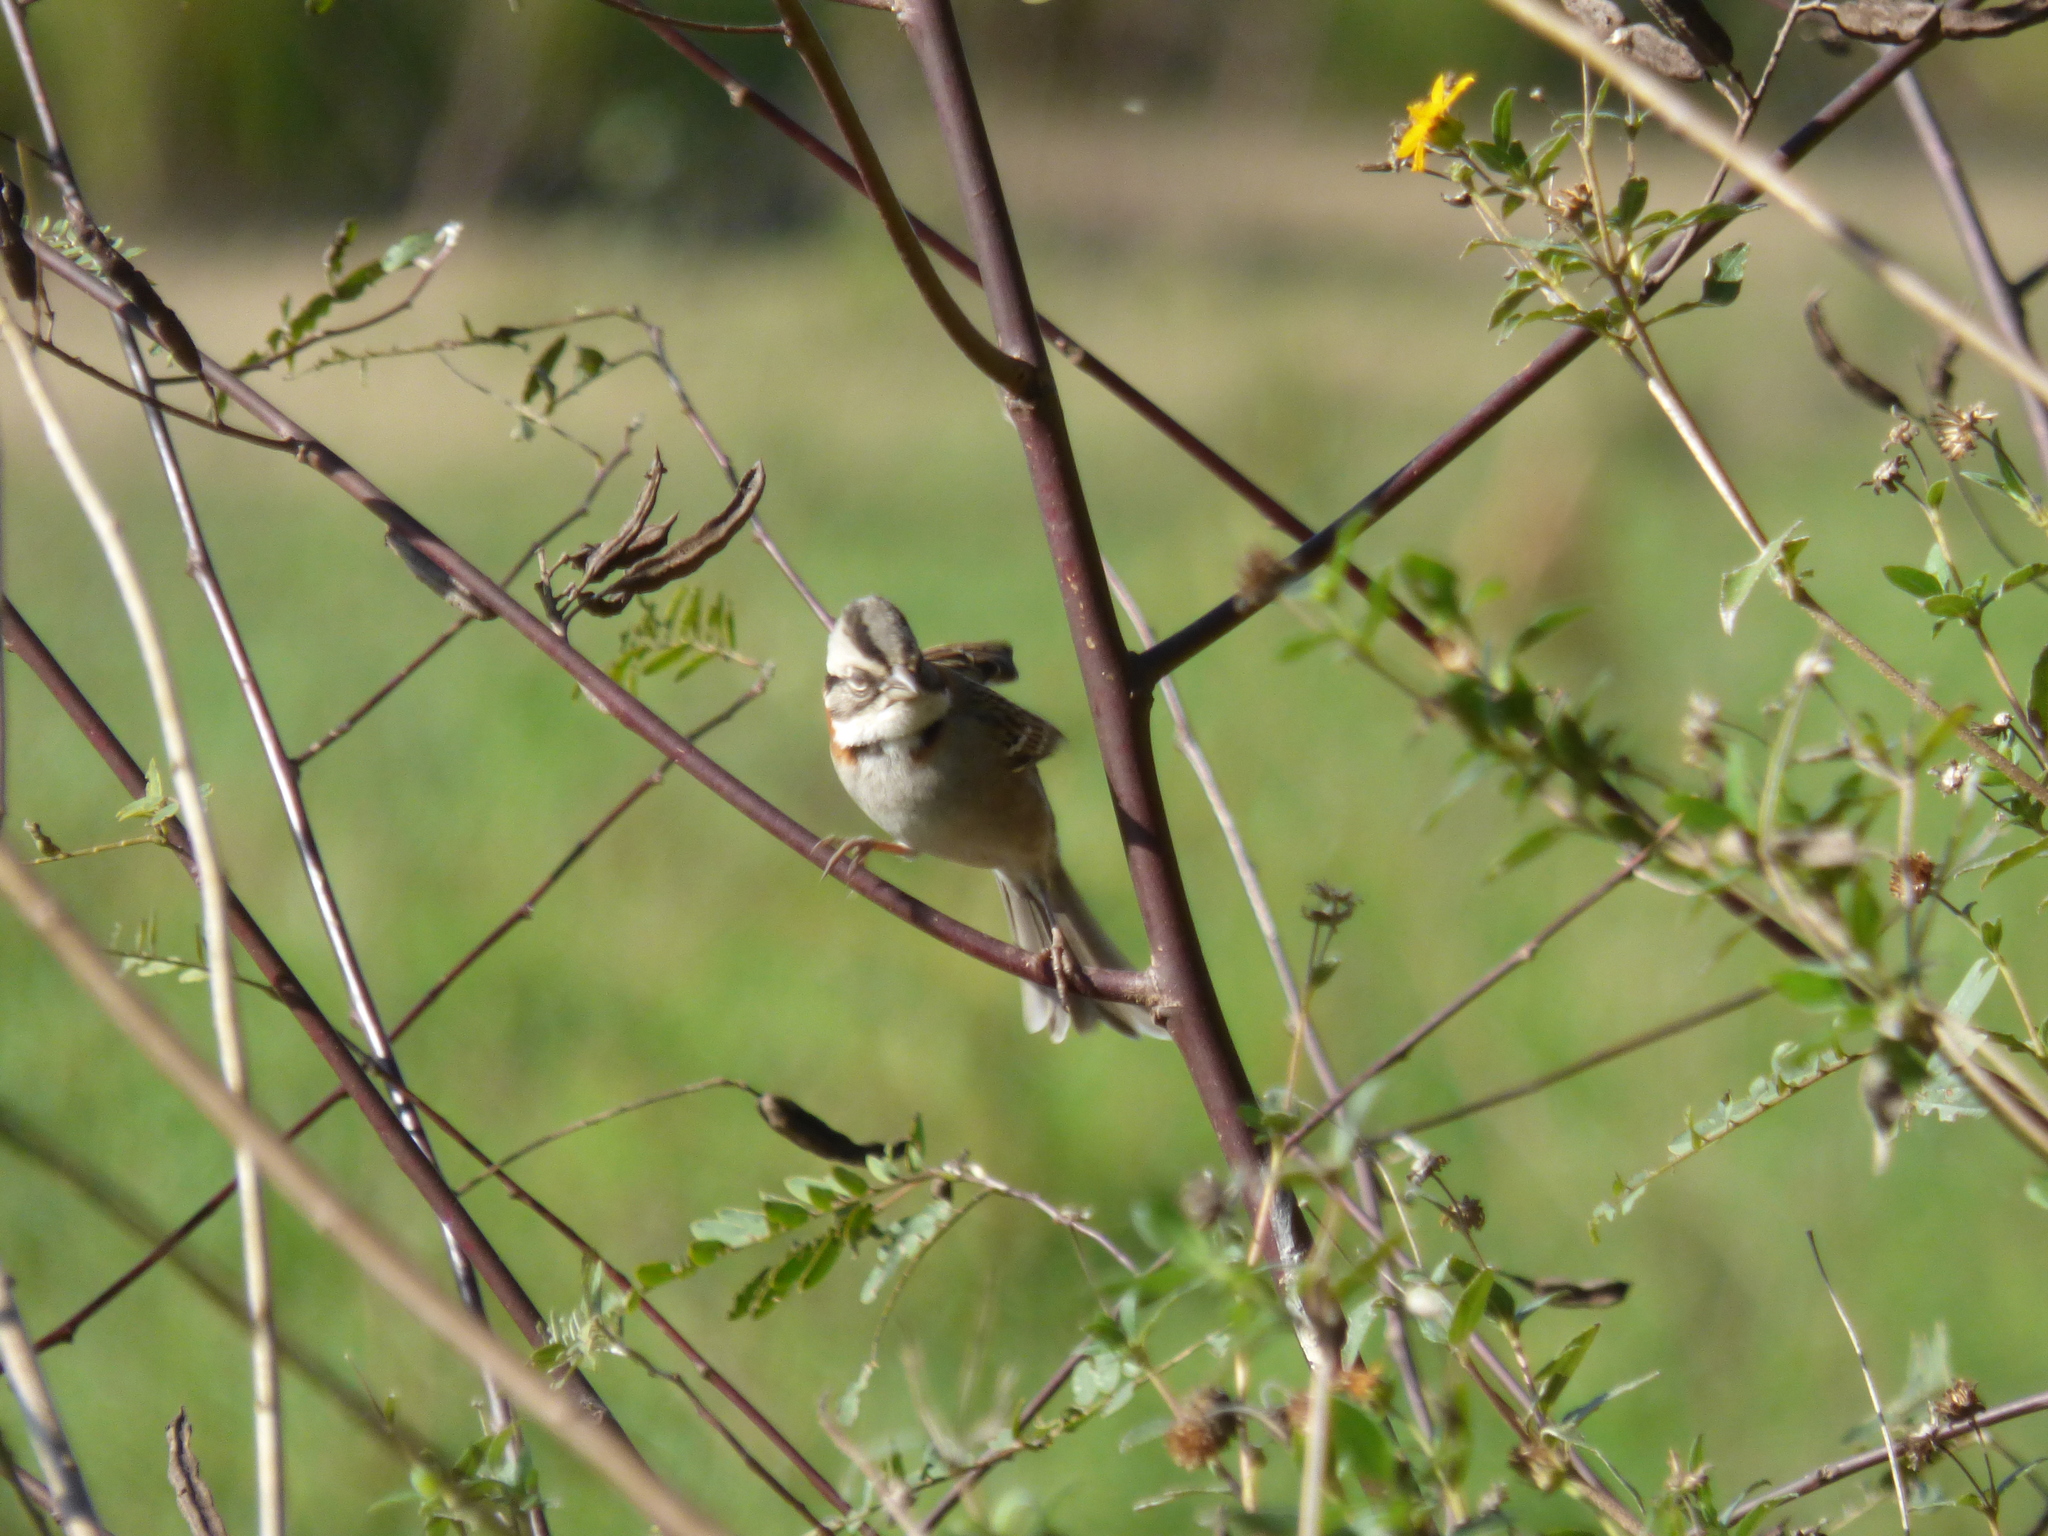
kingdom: Animalia
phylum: Chordata
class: Aves
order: Passeriformes
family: Passerellidae
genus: Zonotrichia
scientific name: Zonotrichia capensis
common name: Rufous-collared sparrow
